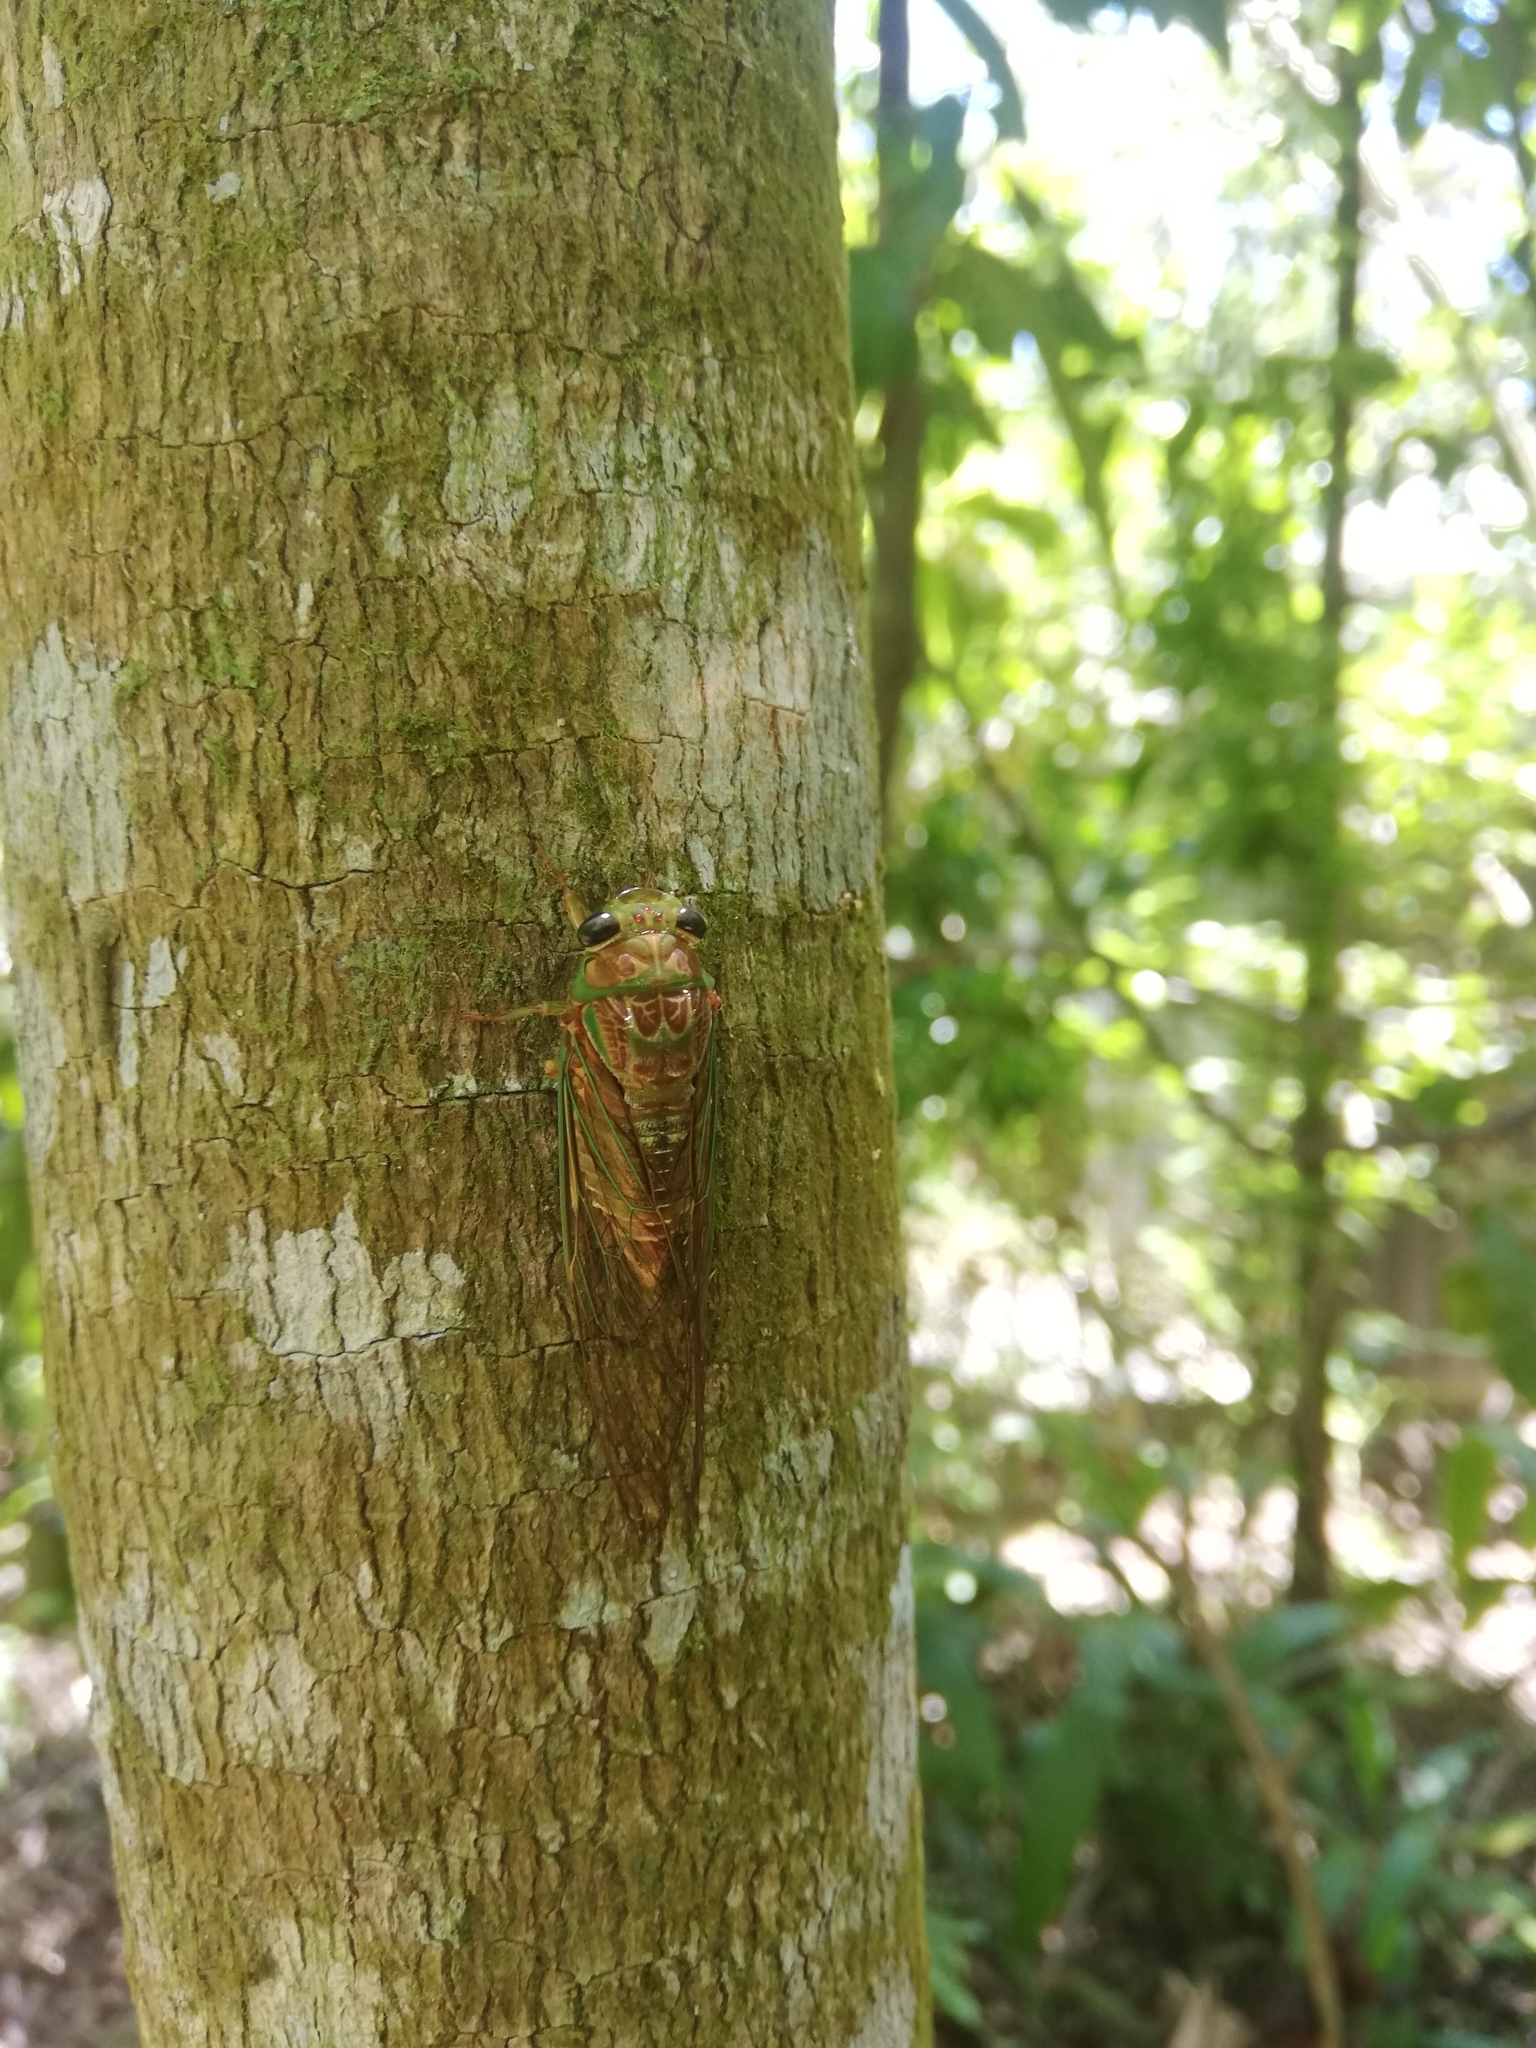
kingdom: Animalia
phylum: Arthropoda
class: Insecta
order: Hemiptera
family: Cicadidae
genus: Venustria
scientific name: Venustria superba
